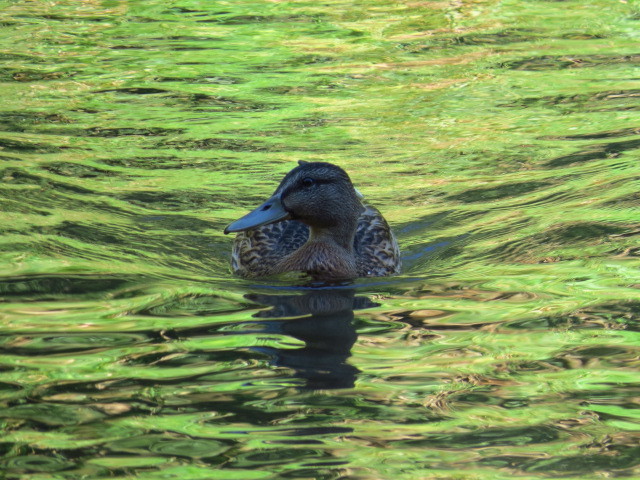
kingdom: Animalia
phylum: Chordata
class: Aves
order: Anseriformes
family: Anatidae
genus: Anas
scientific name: Anas platyrhynchos
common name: Mallard
